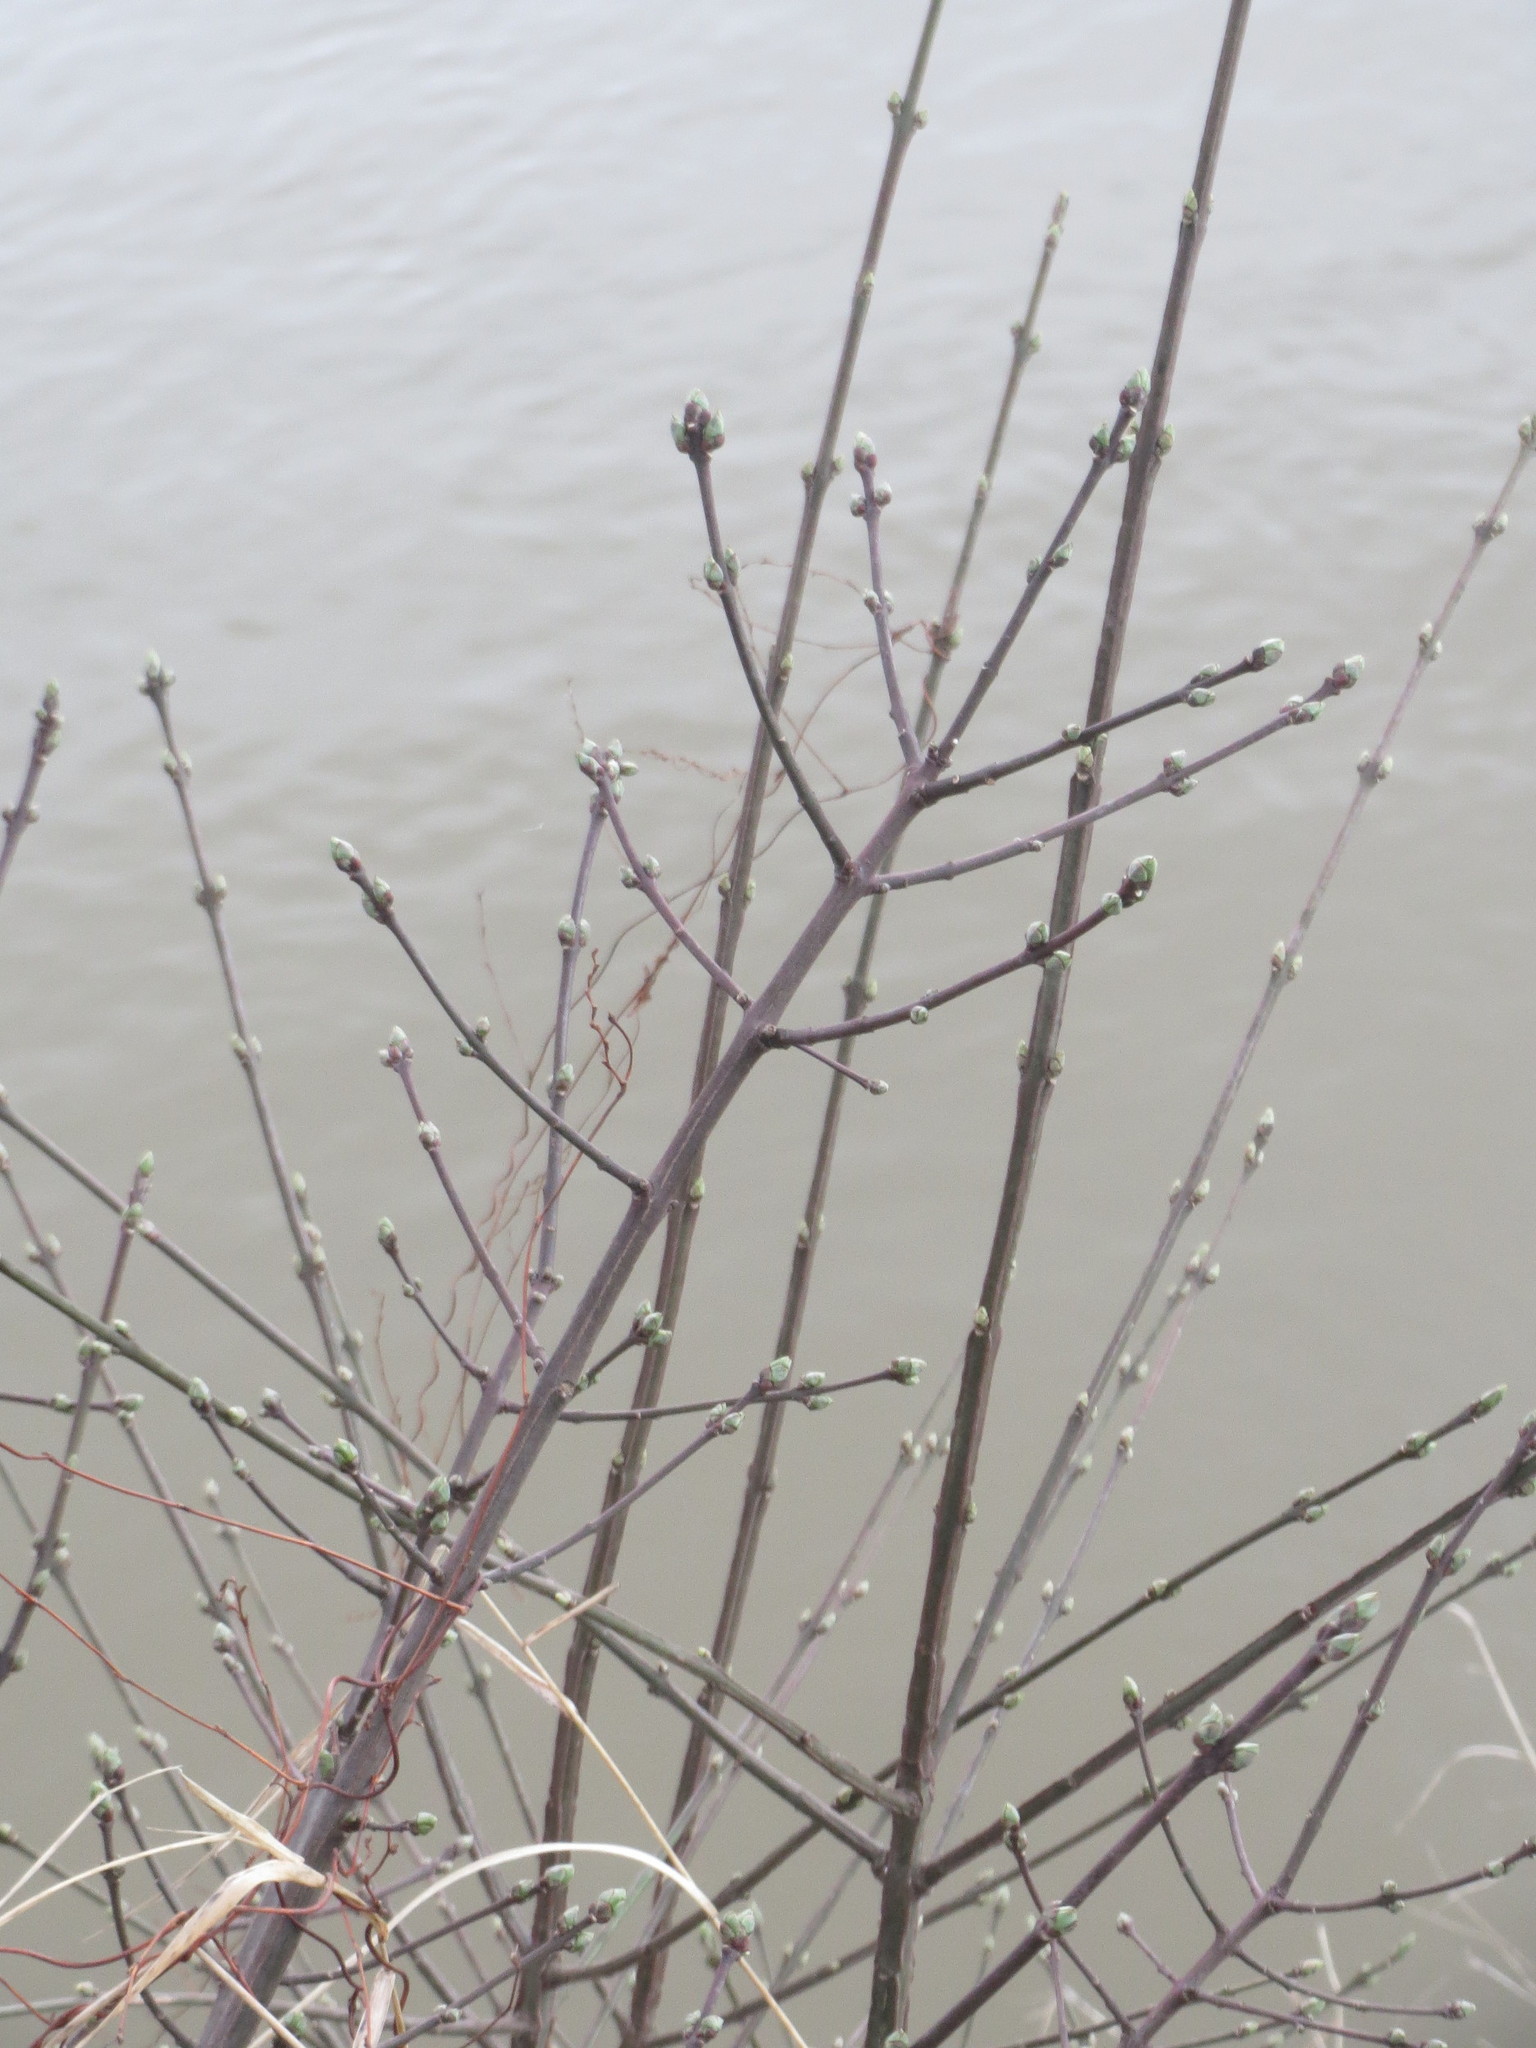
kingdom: Plantae
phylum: Tracheophyta
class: Magnoliopsida
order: Celastrales
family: Celastraceae
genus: Euonymus
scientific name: Euonymus europaeus
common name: Spindle
